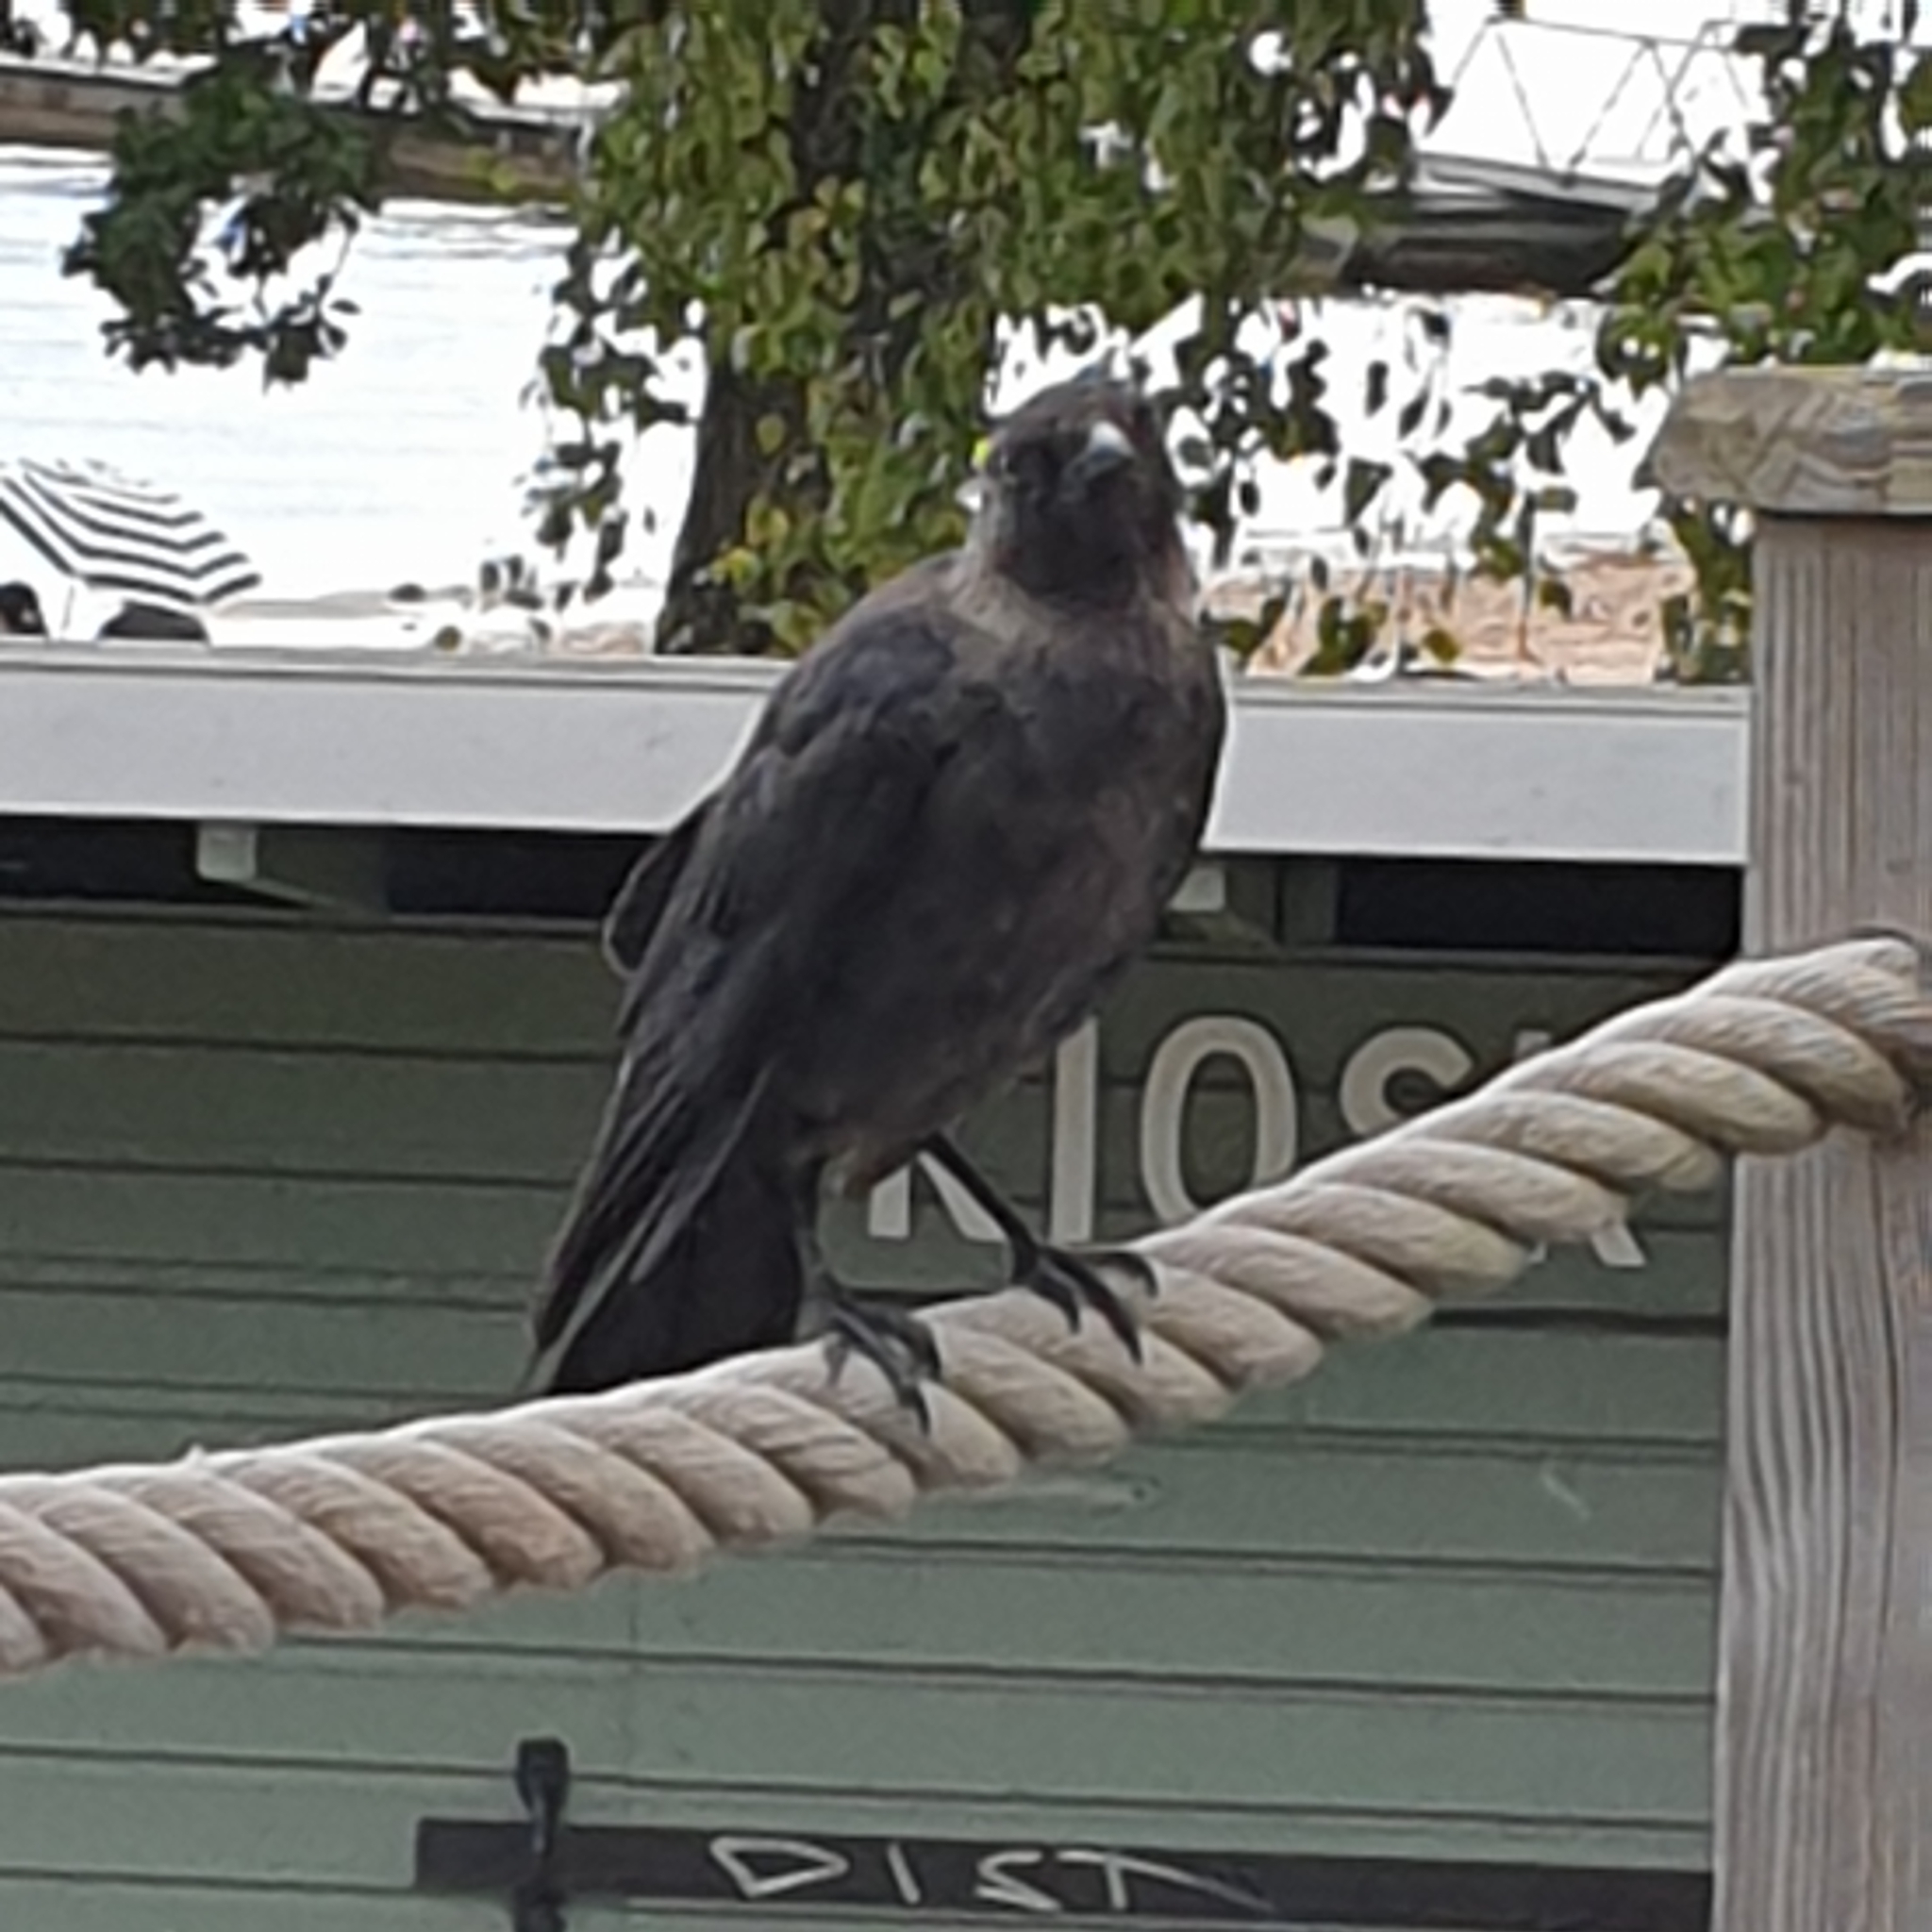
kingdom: Animalia
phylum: Chordata
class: Aves
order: Passeriformes
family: Corvidae
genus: Coloeus
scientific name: Coloeus monedula
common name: Western jackdaw
